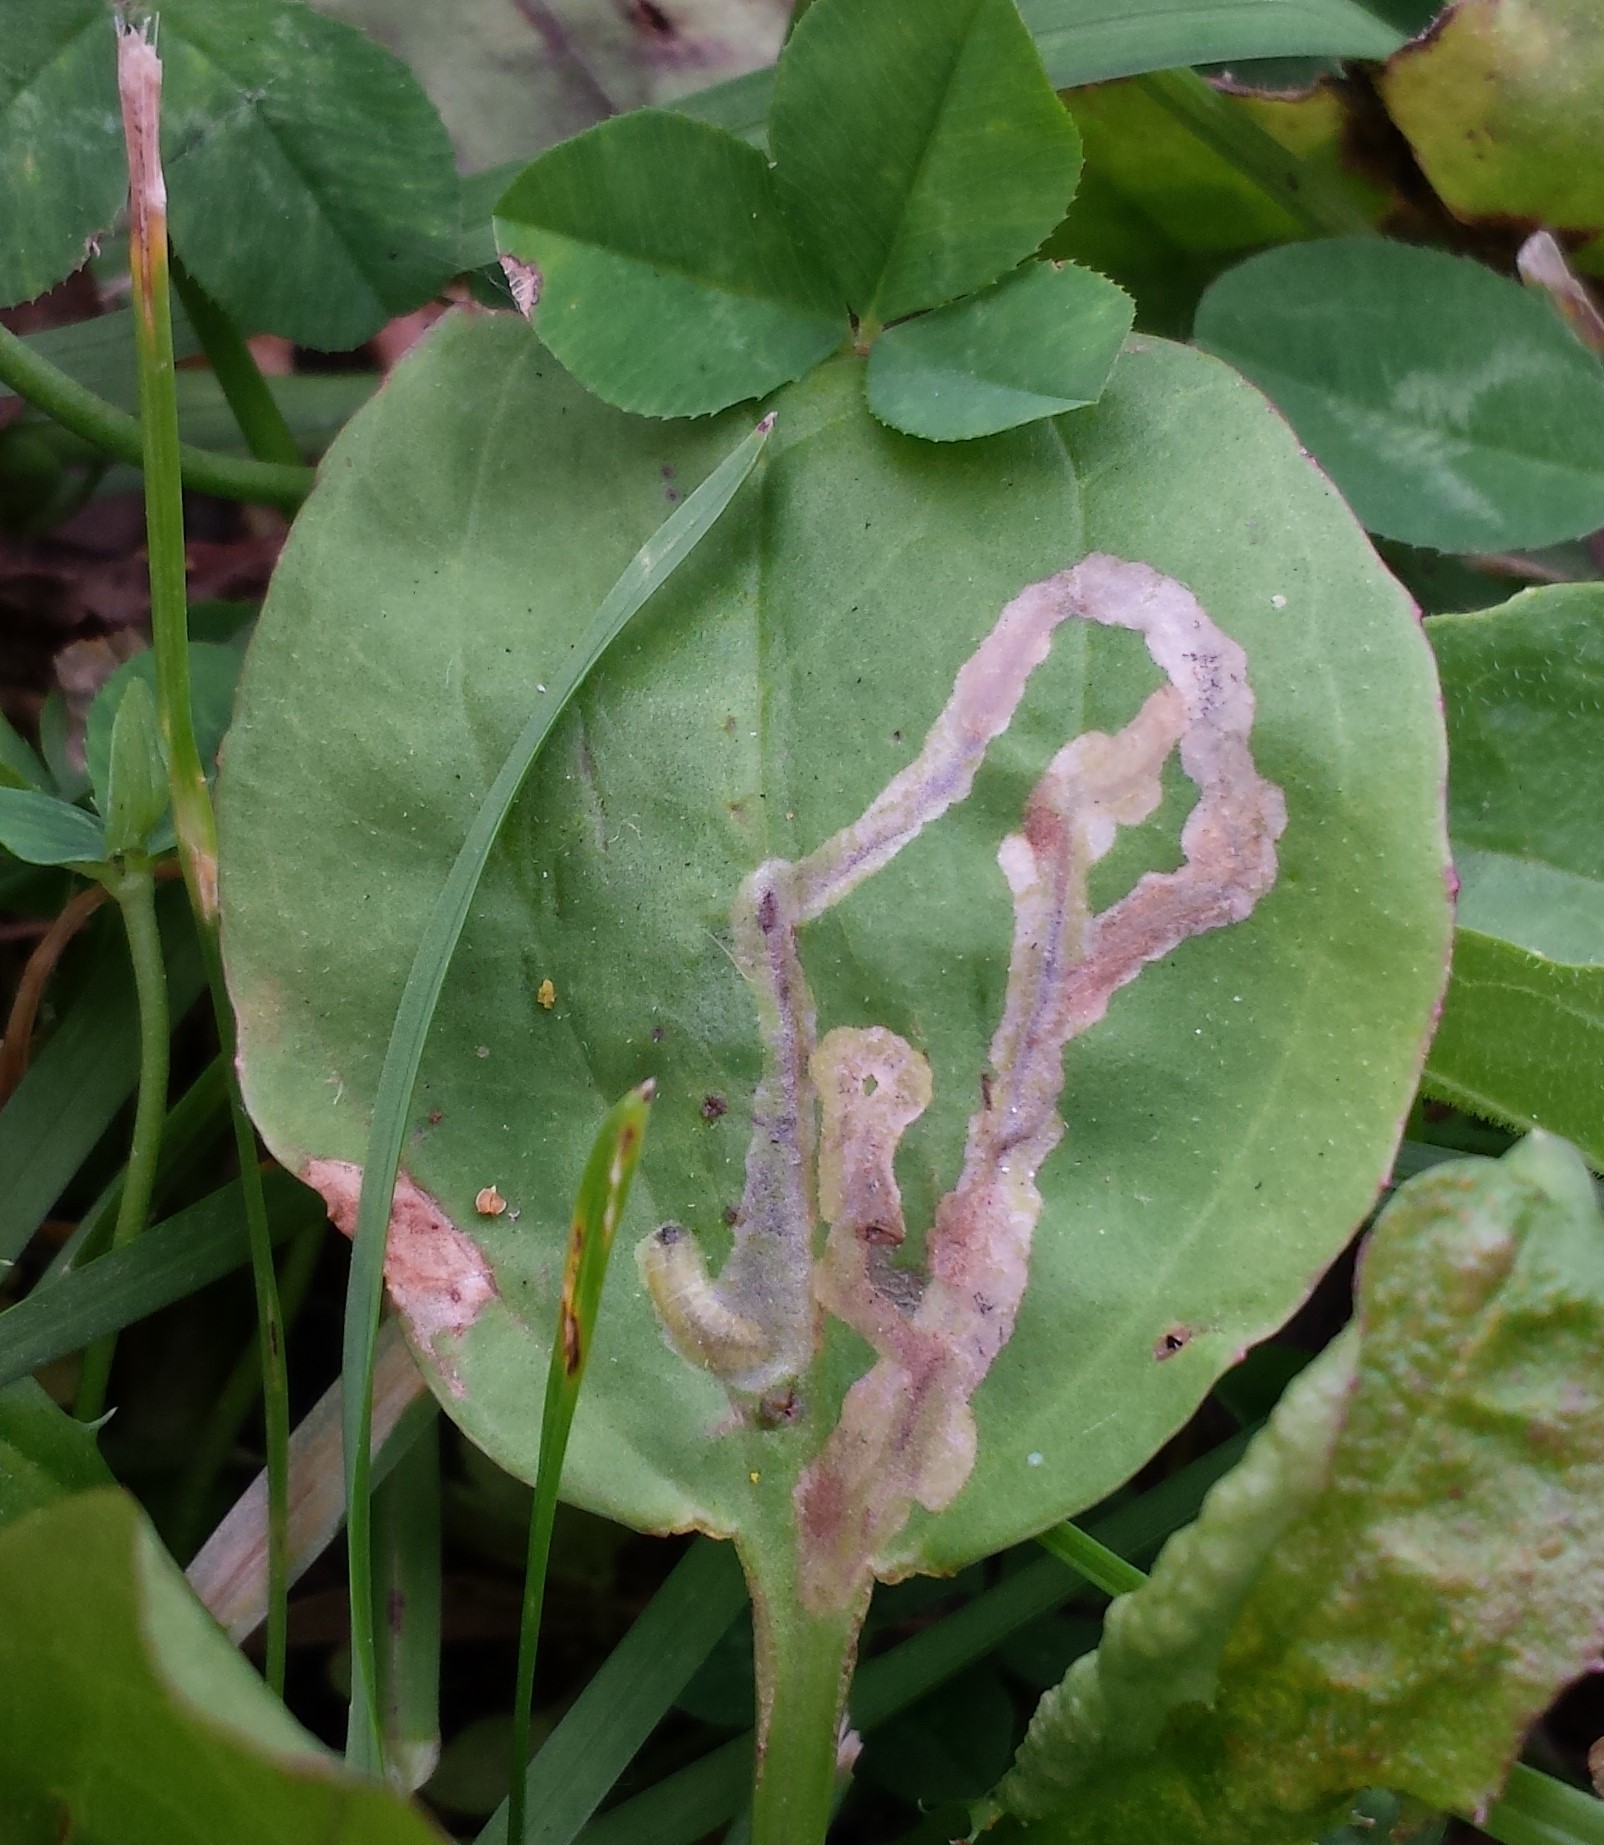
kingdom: Animalia
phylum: Arthropoda
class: Insecta
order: Coleoptera
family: Chrysomelidae
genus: Dibolia
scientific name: Dibolia borealis
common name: Northern plantain flea beetle
